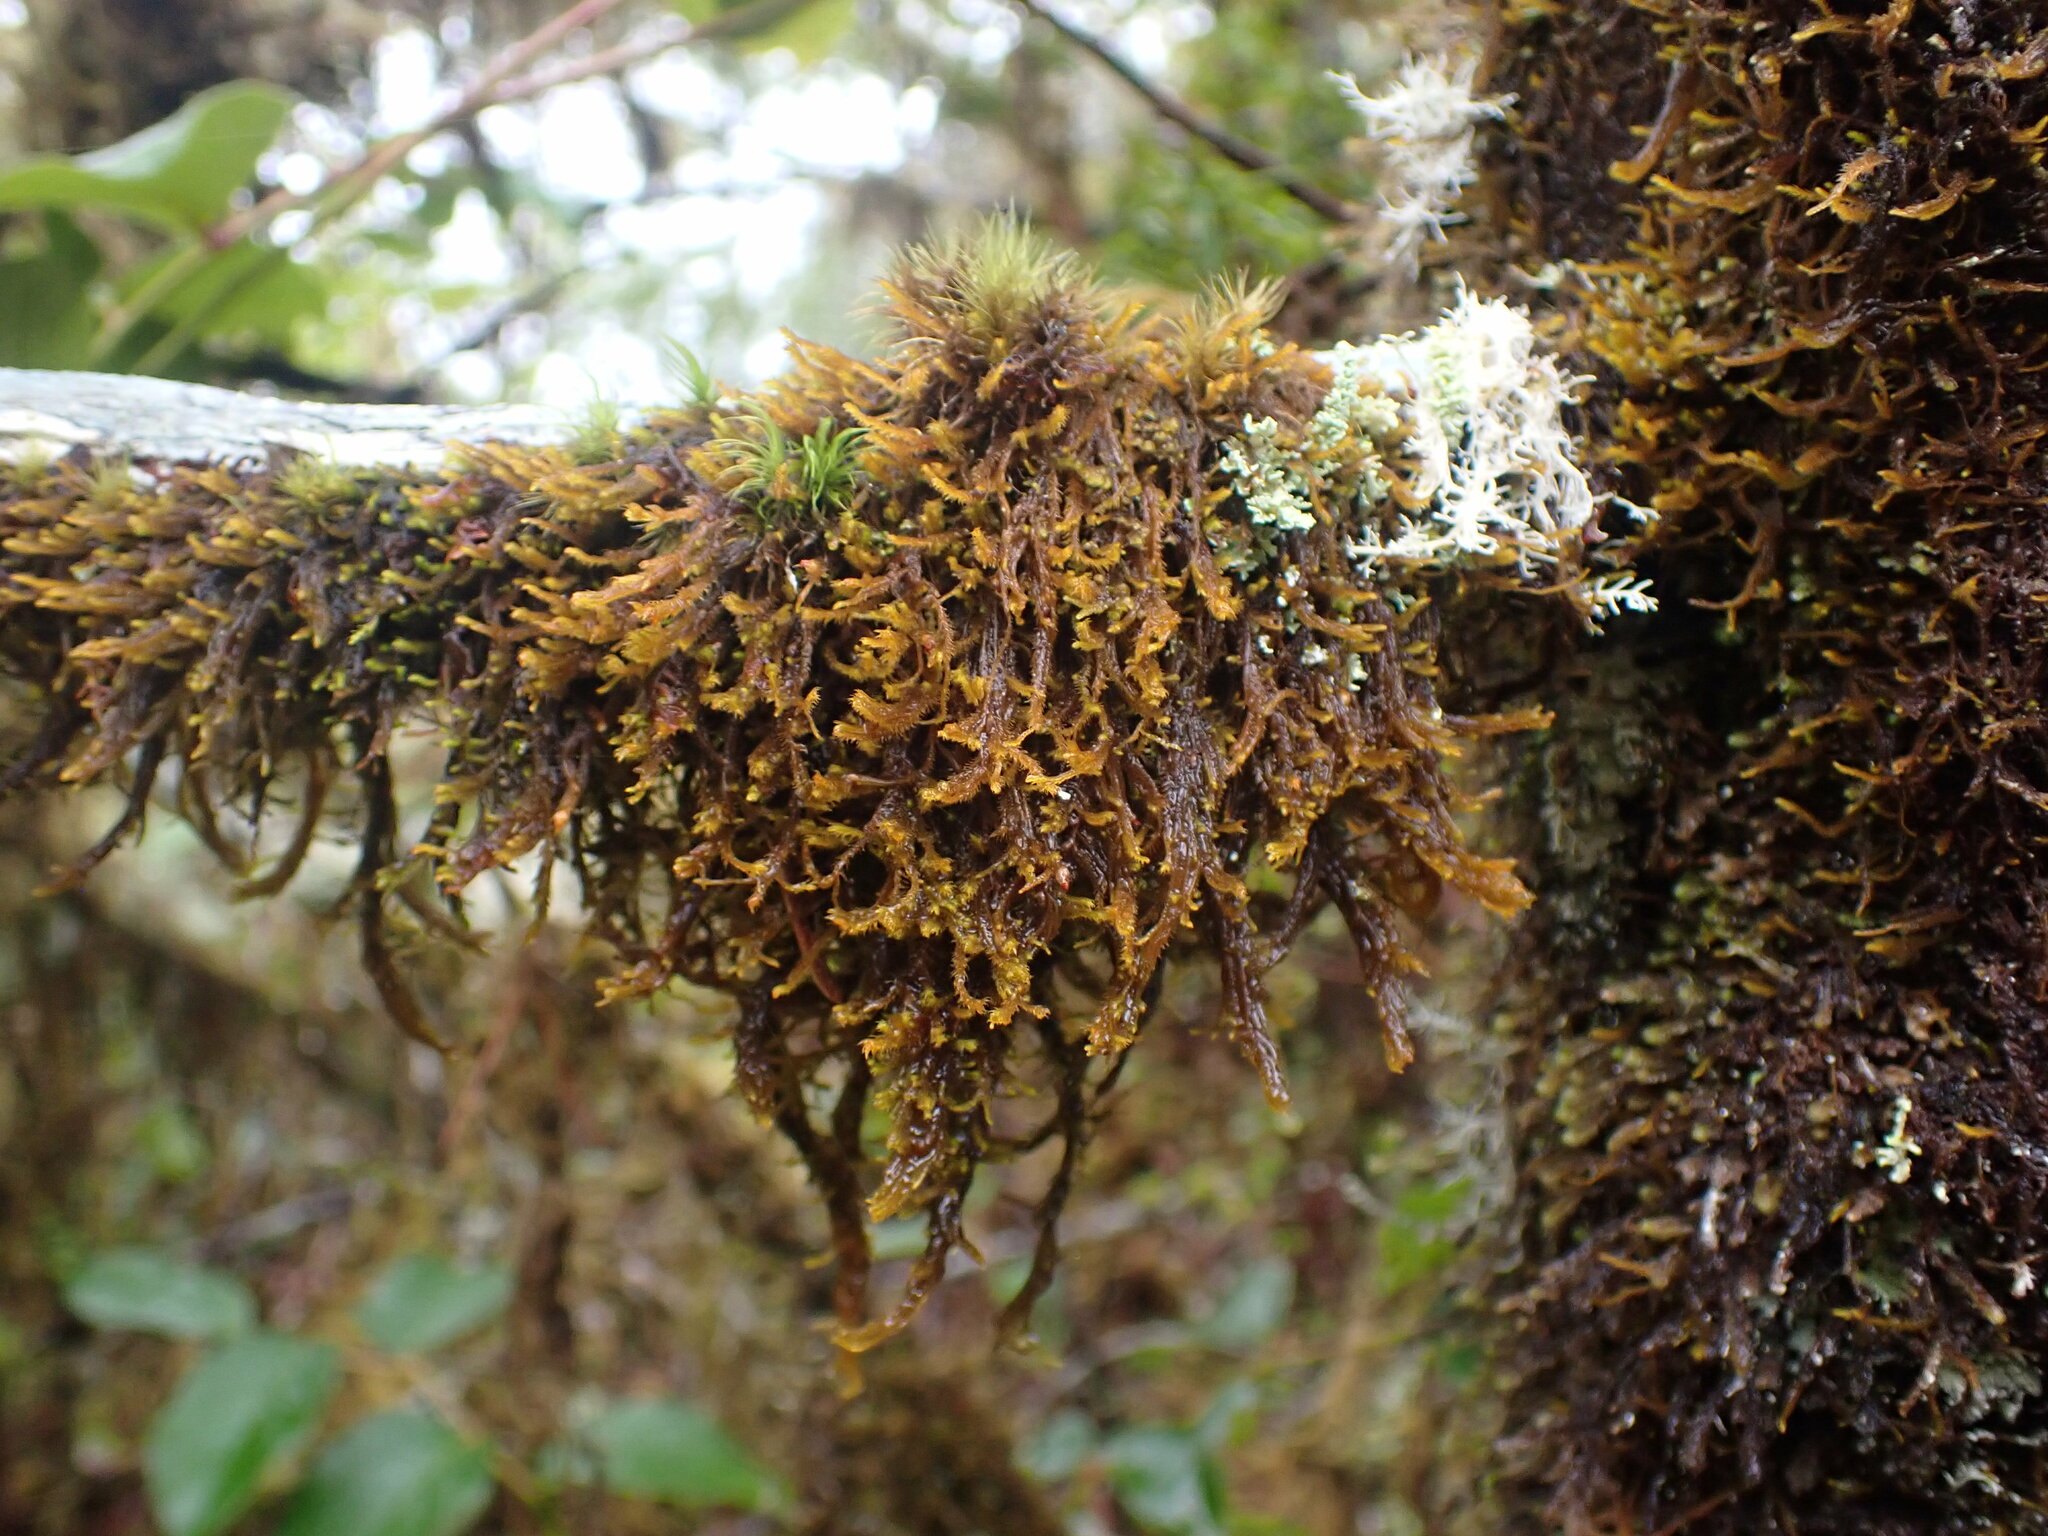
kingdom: Plantae
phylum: Marchantiophyta
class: Jungermanniopsida
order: Jungermanniales
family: Herbertaceae
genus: Herbertus
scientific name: Herbertus aduncus
